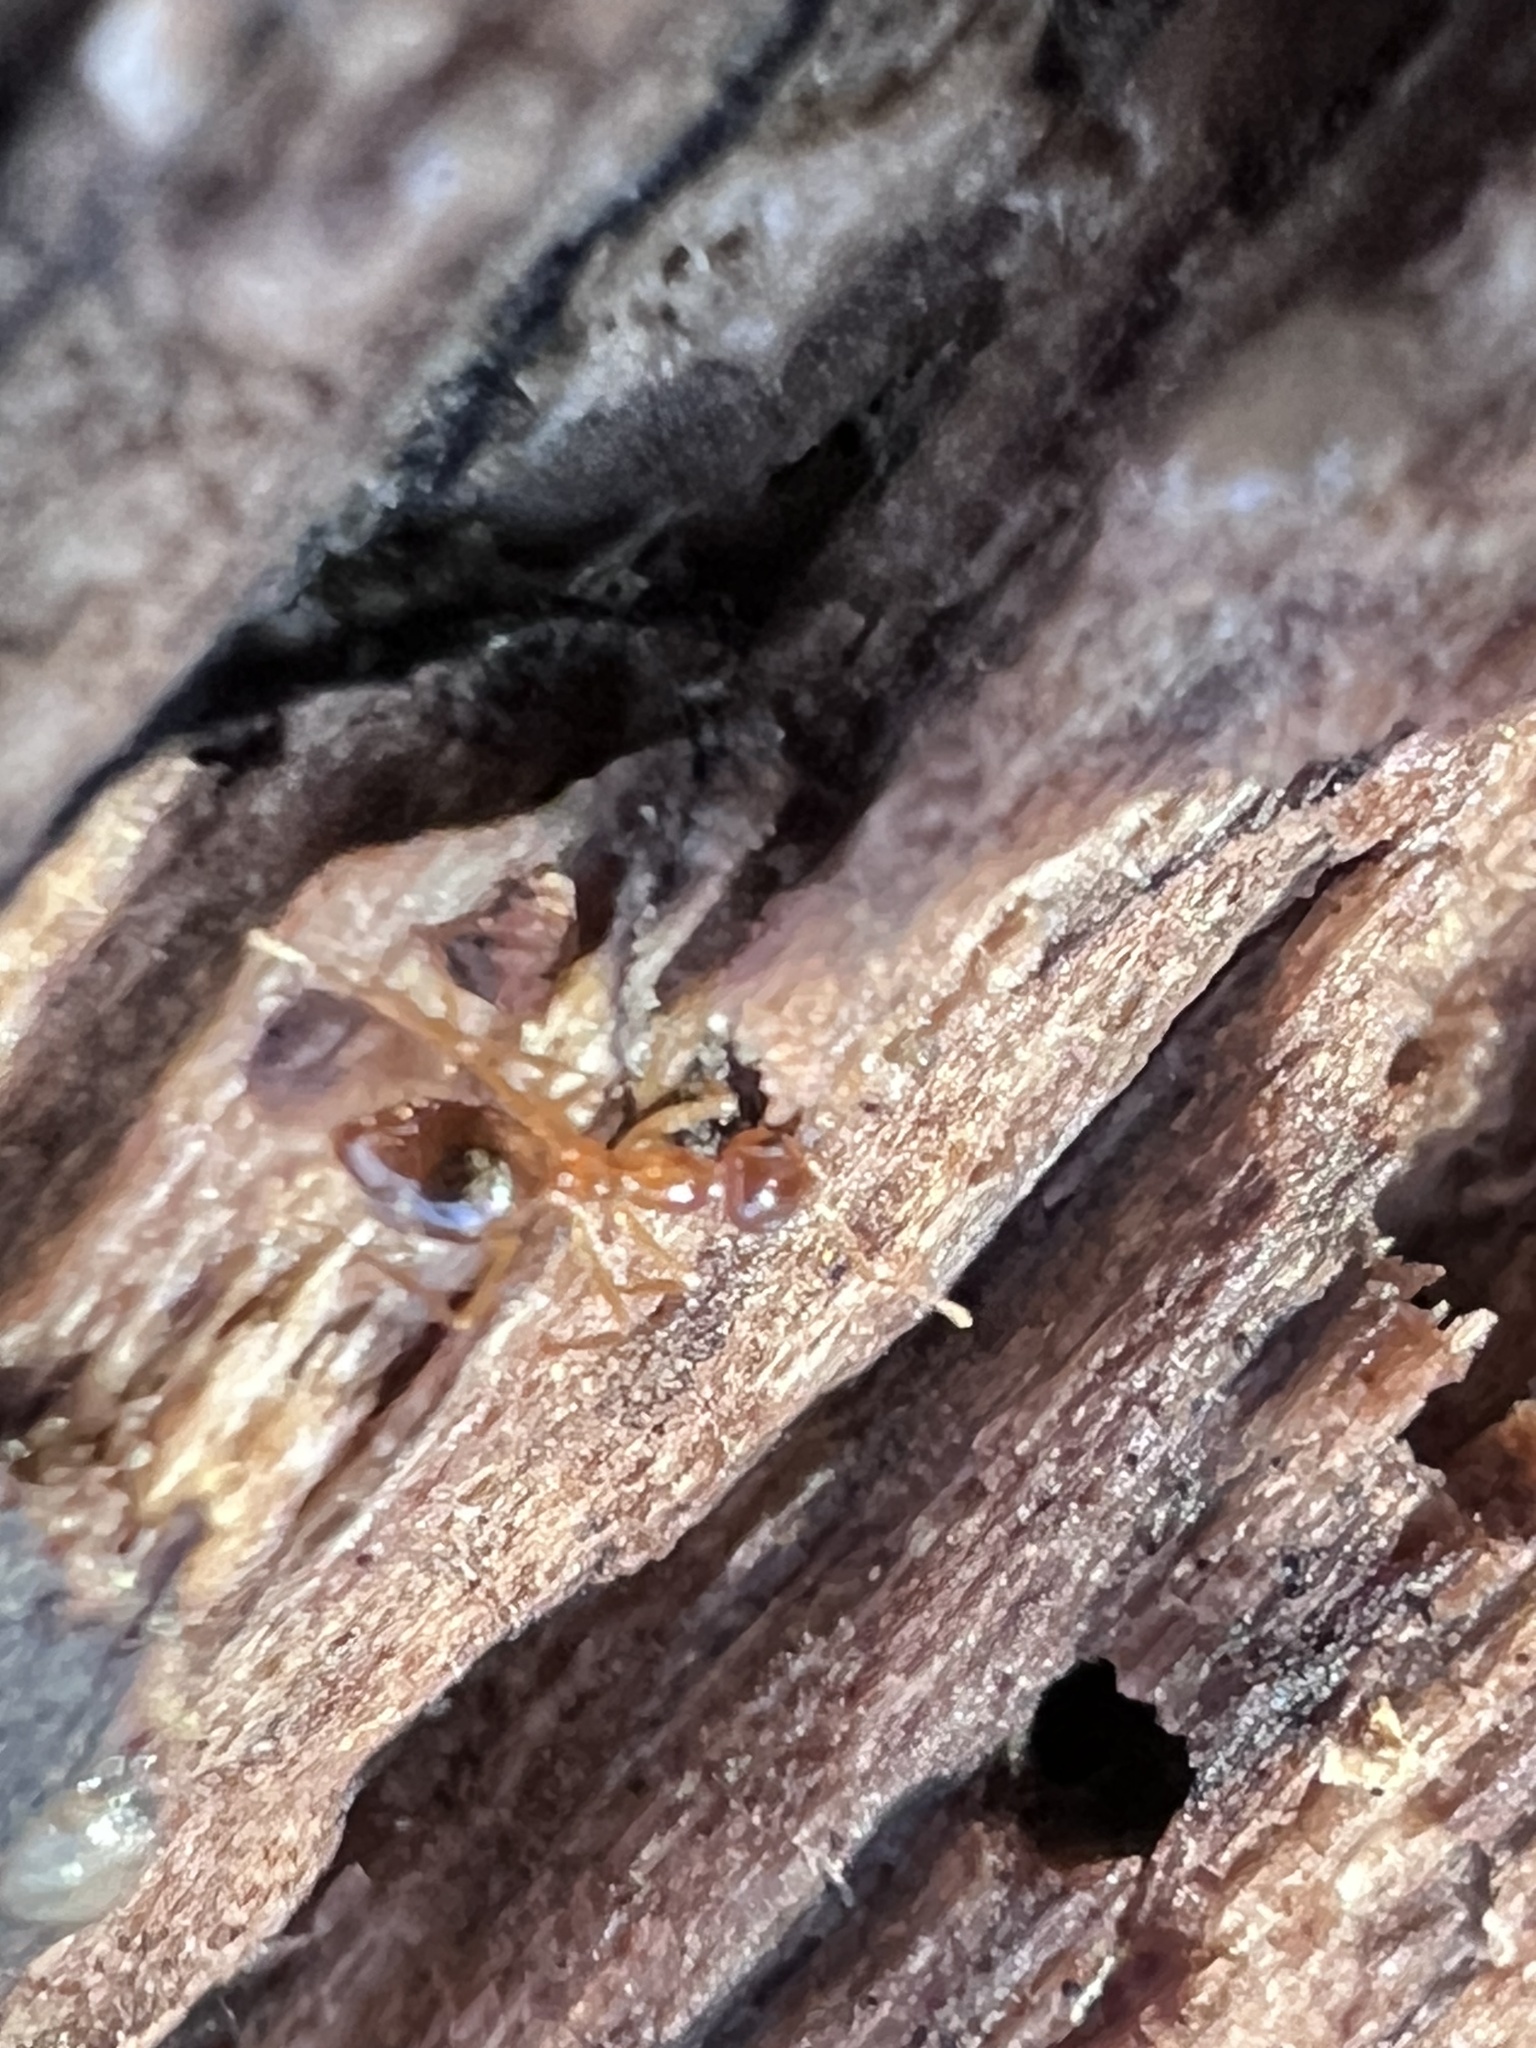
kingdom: Animalia
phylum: Arthropoda
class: Insecta
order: Hymenoptera
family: Formicidae
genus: Prenolepis
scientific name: Prenolepis imparis
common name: Small honey ant
